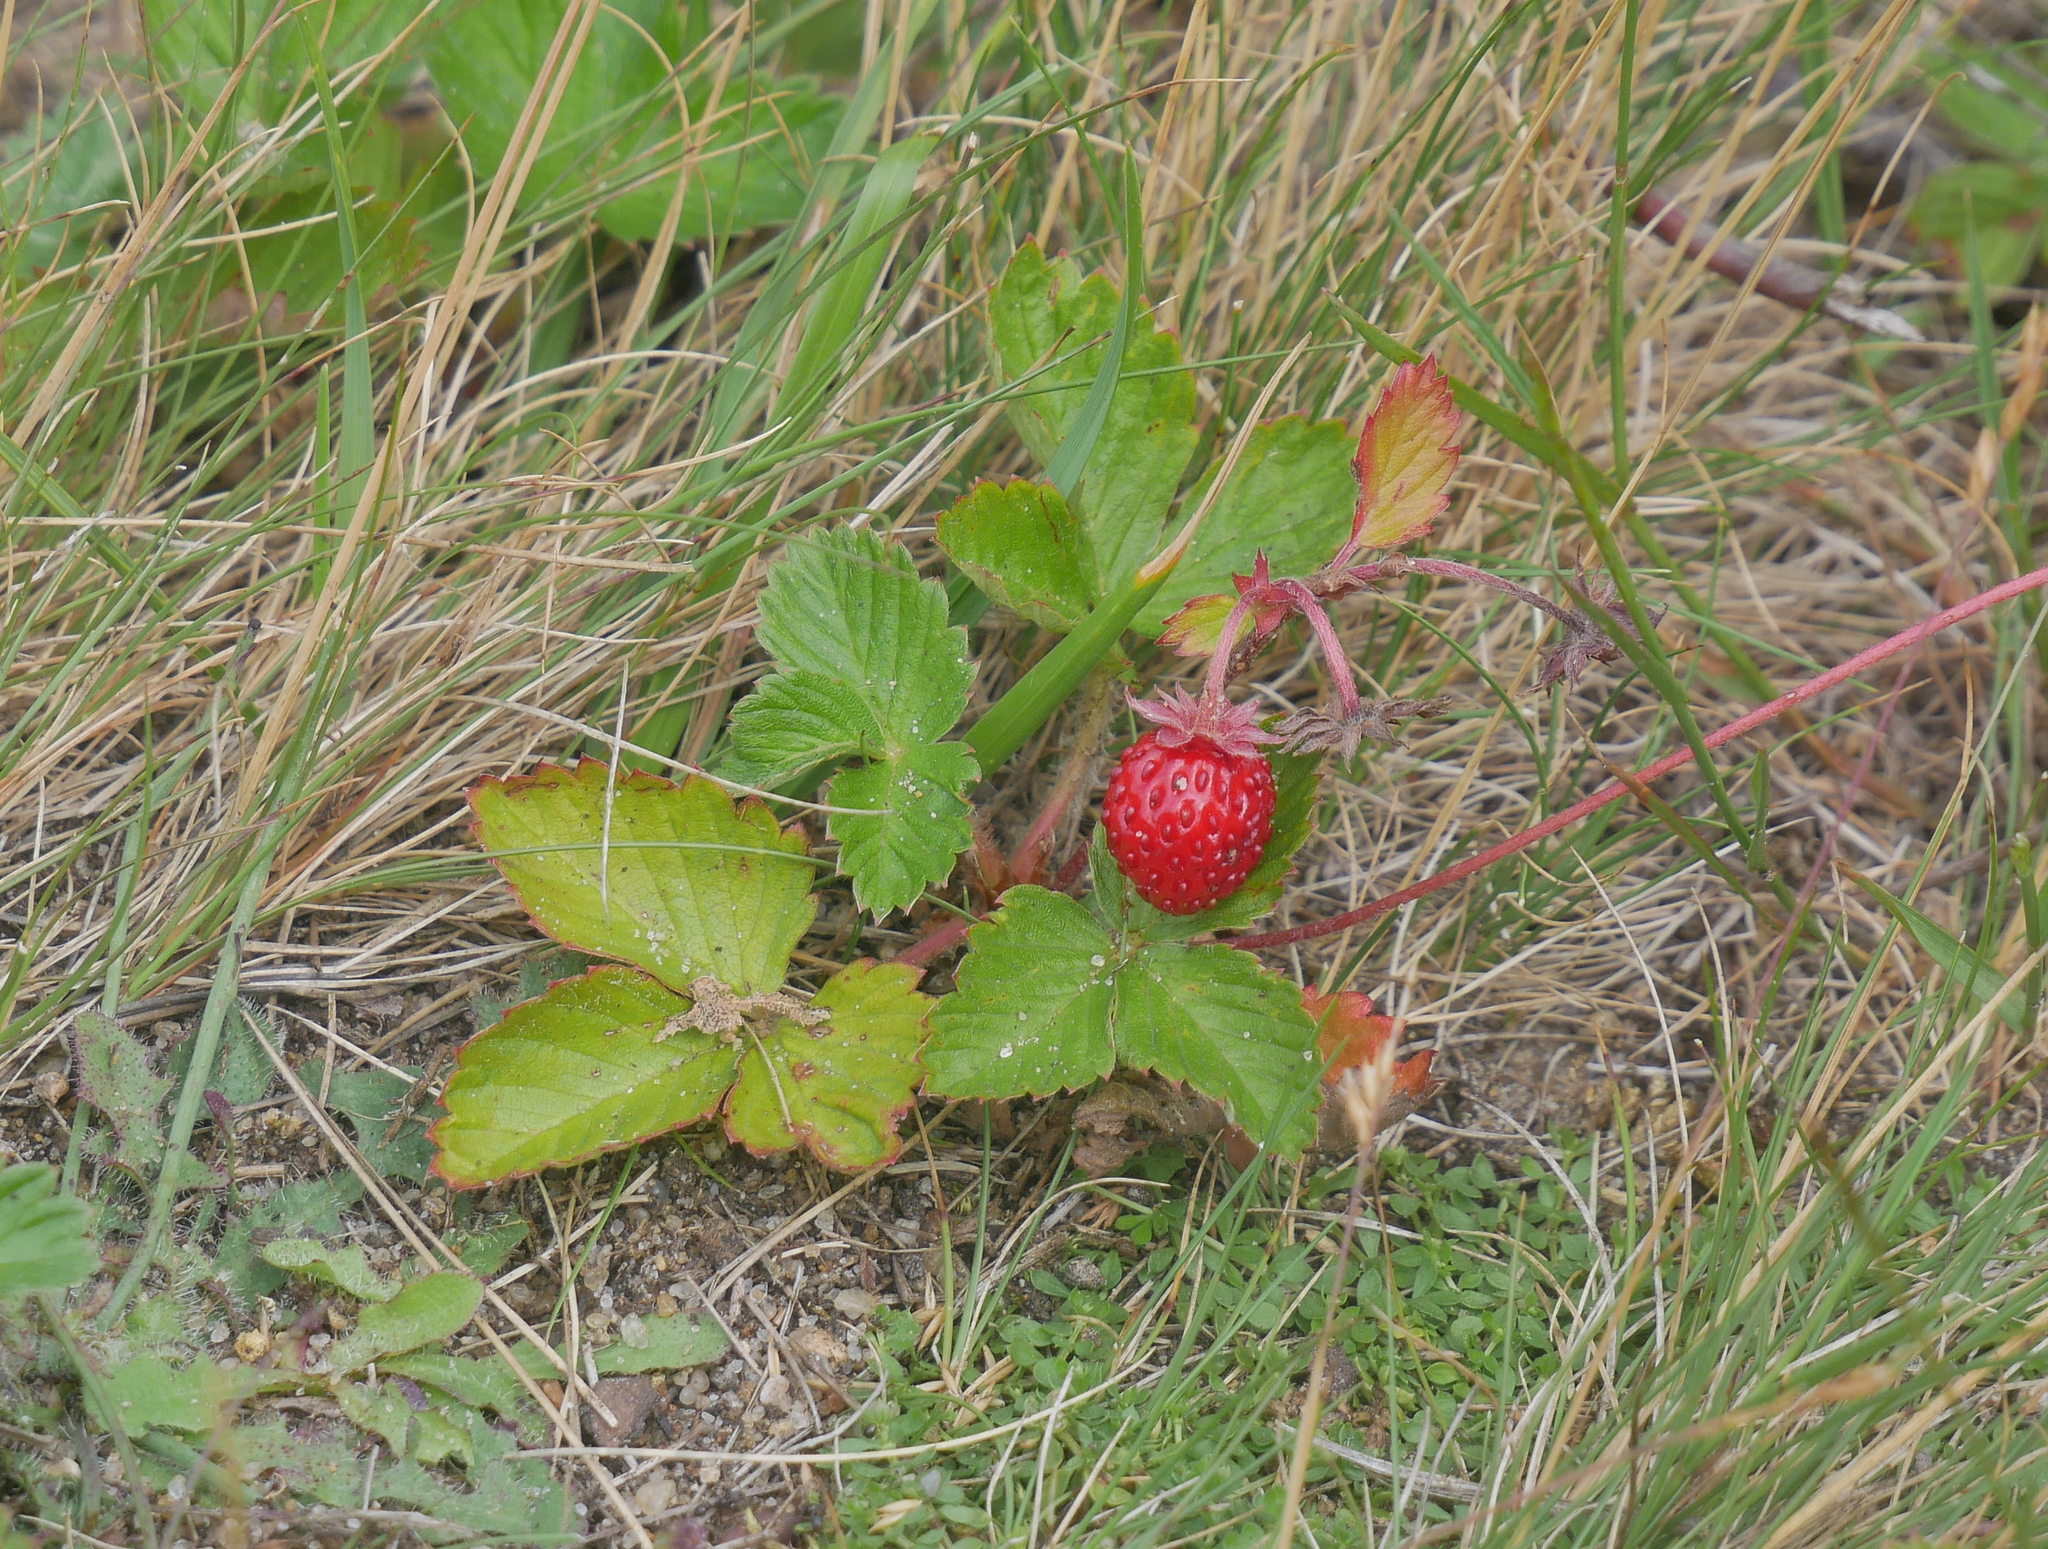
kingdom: Plantae
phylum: Tracheophyta
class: Magnoliopsida
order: Rosales
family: Rosaceae
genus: Fragaria
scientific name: Fragaria vesca
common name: Wild strawberry
